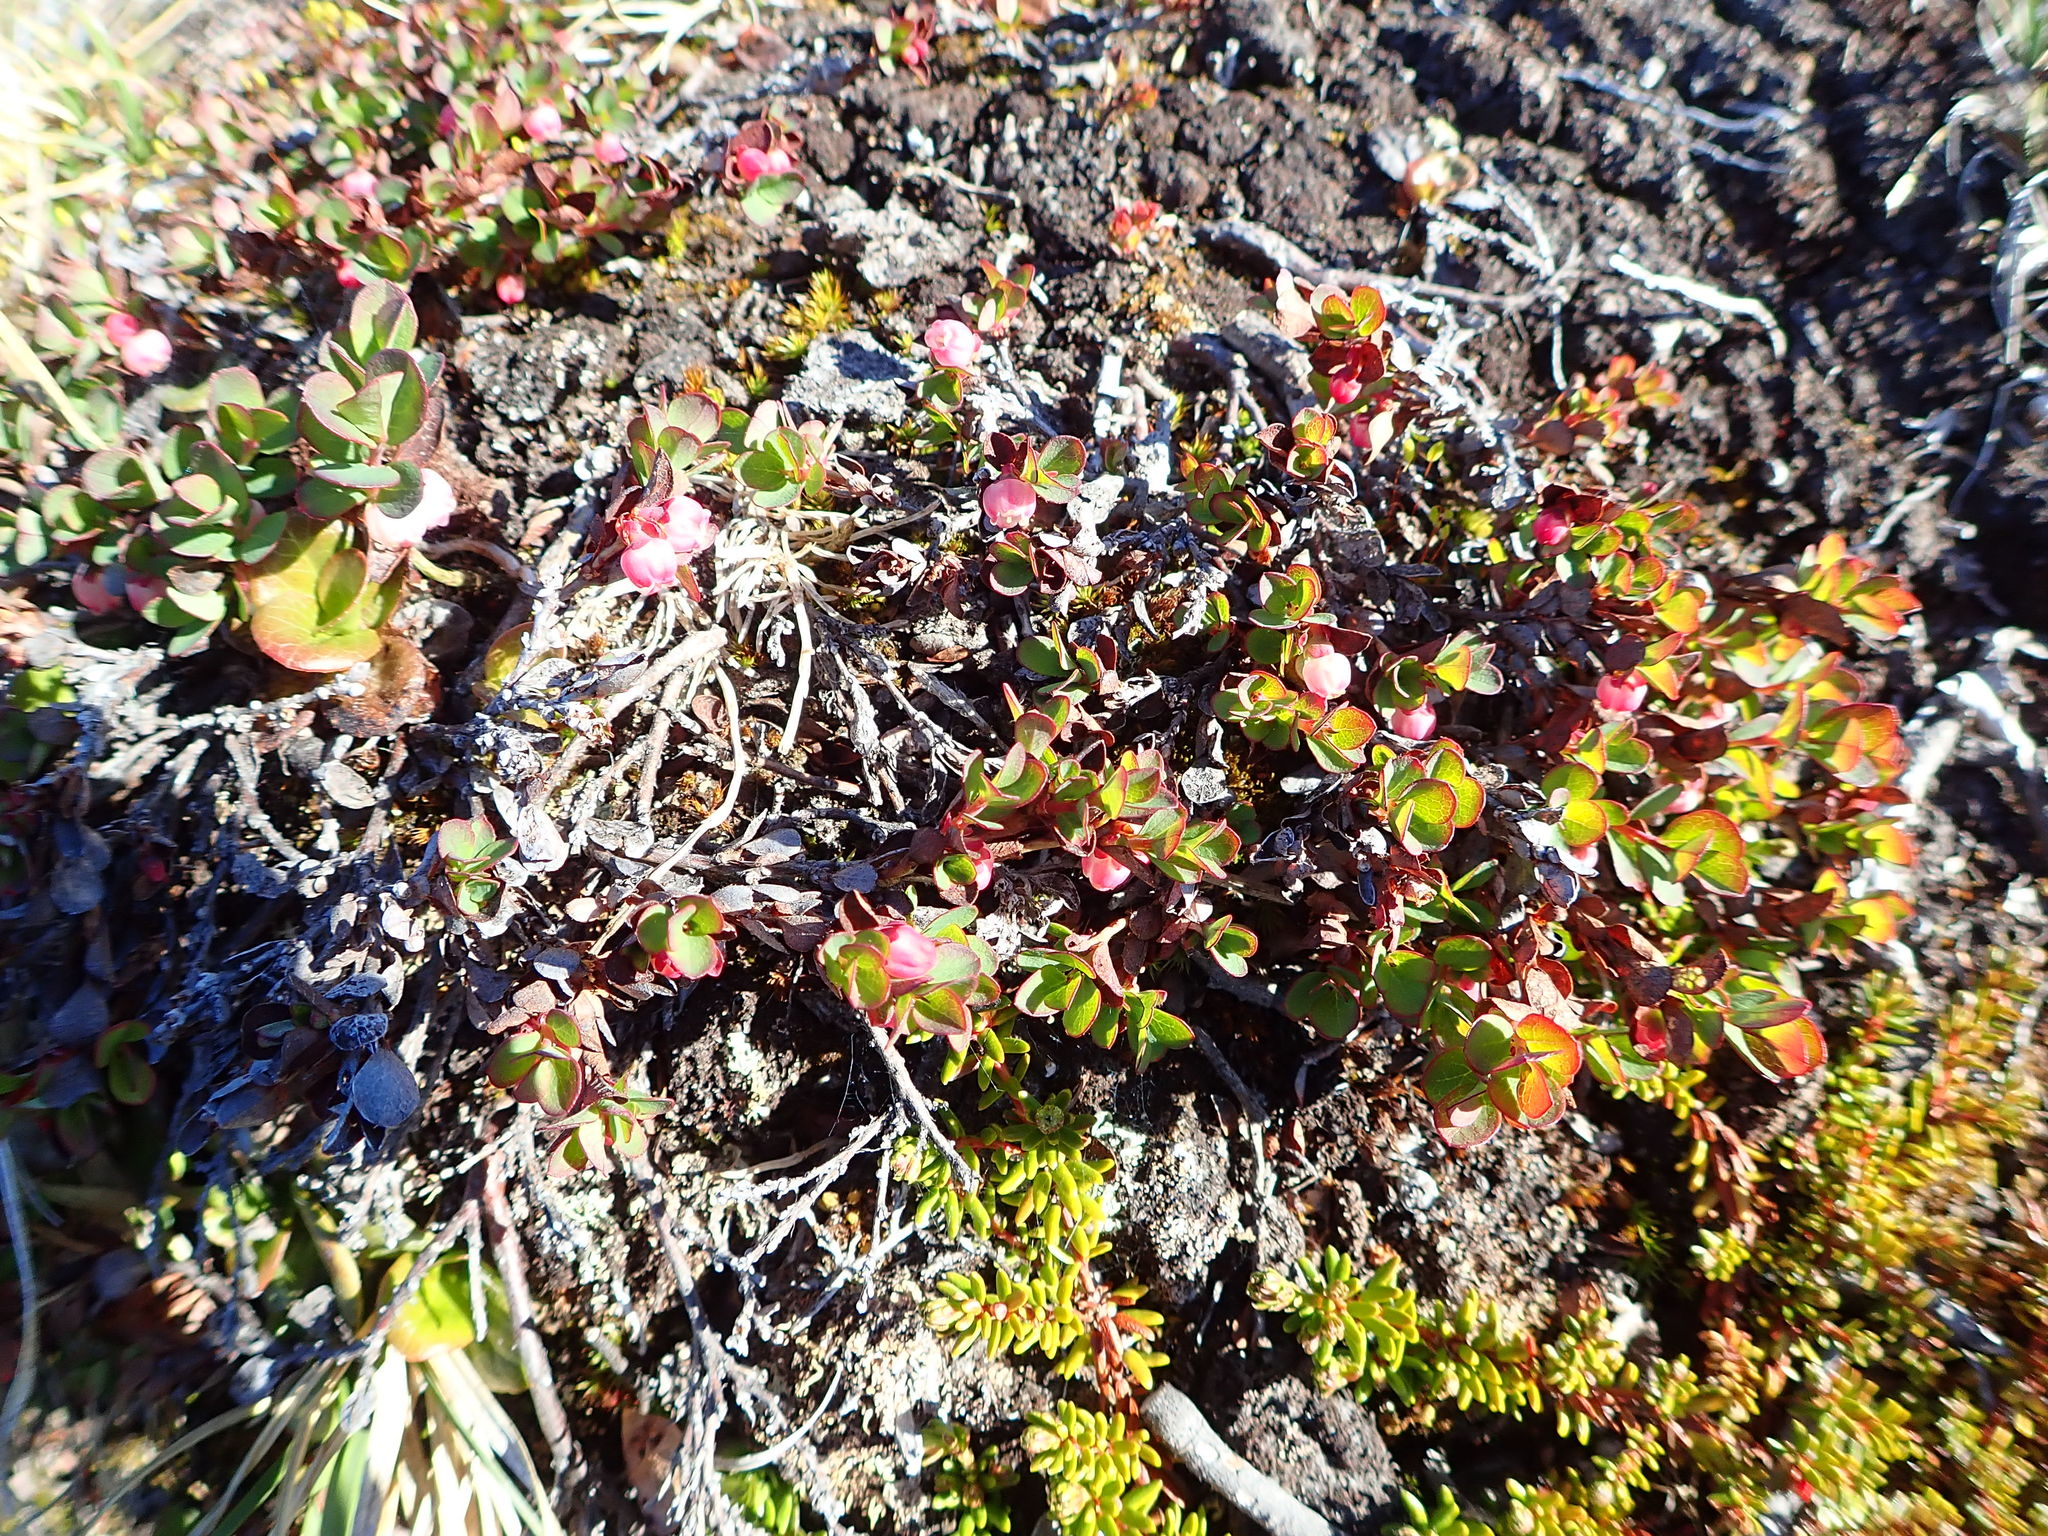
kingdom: Plantae
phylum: Tracheophyta
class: Magnoliopsida
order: Ericales
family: Ericaceae
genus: Vaccinium
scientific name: Vaccinium uliginosum
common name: Bog bilberry
